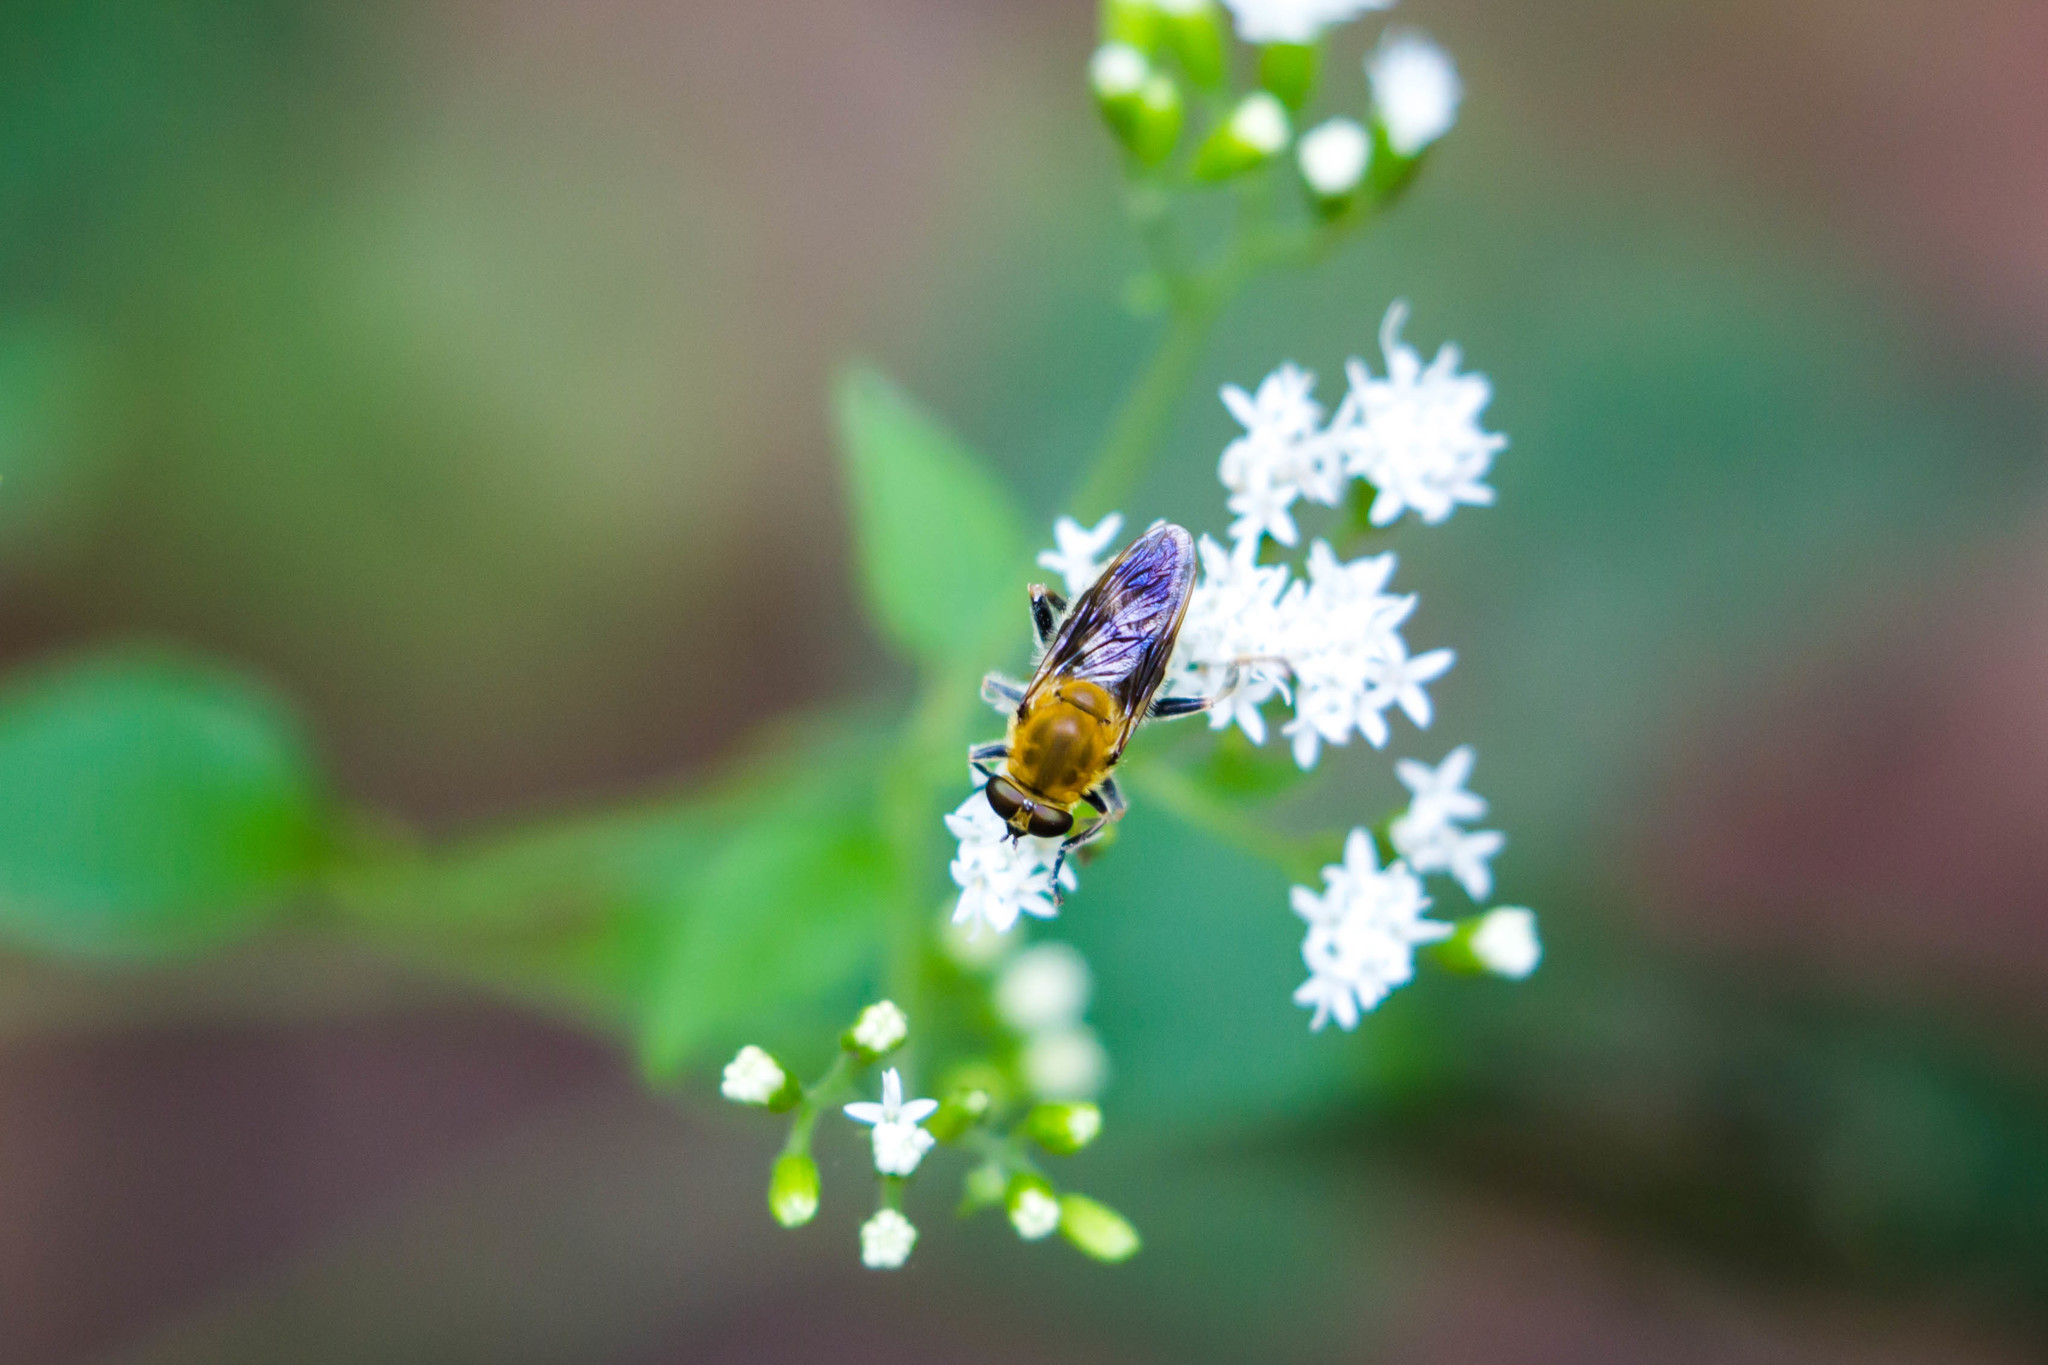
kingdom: Animalia
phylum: Arthropoda
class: Insecta
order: Diptera
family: Syrphidae
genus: Pterallastes
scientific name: Pterallastes thoracicus
